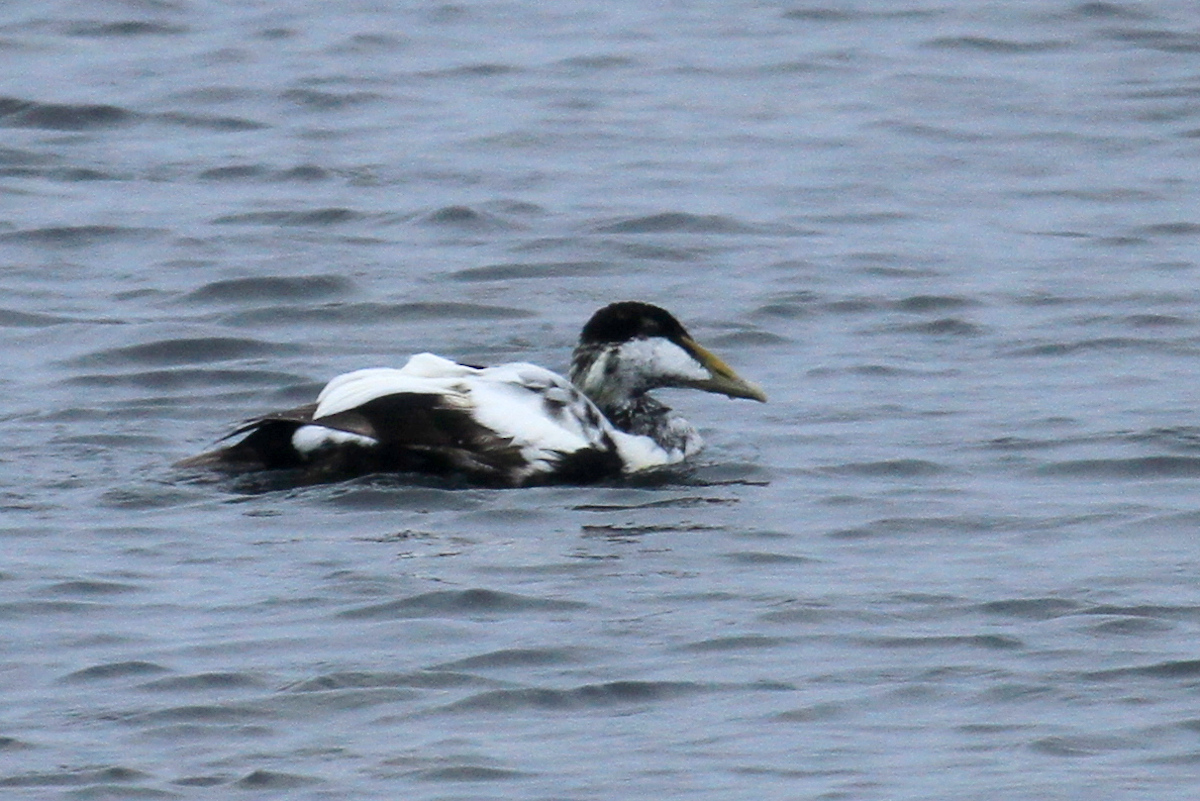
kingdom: Animalia
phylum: Chordata
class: Aves
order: Anseriformes
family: Anatidae
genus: Somateria
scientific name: Somateria mollissima
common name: Common eider
